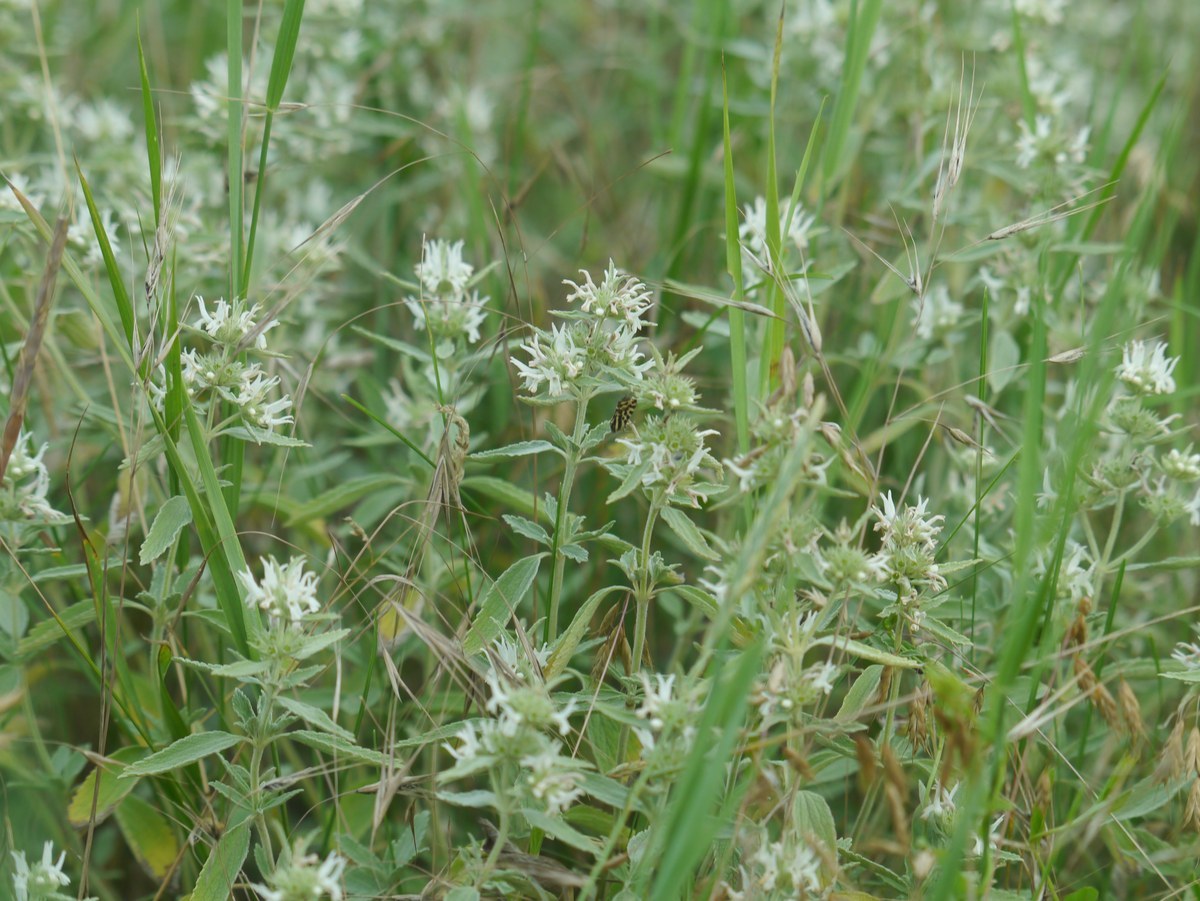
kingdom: Plantae
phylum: Tracheophyta
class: Magnoliopsida
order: Lamiales
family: Lamiaceae
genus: Marrubium
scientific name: Marrubium peregrinum
